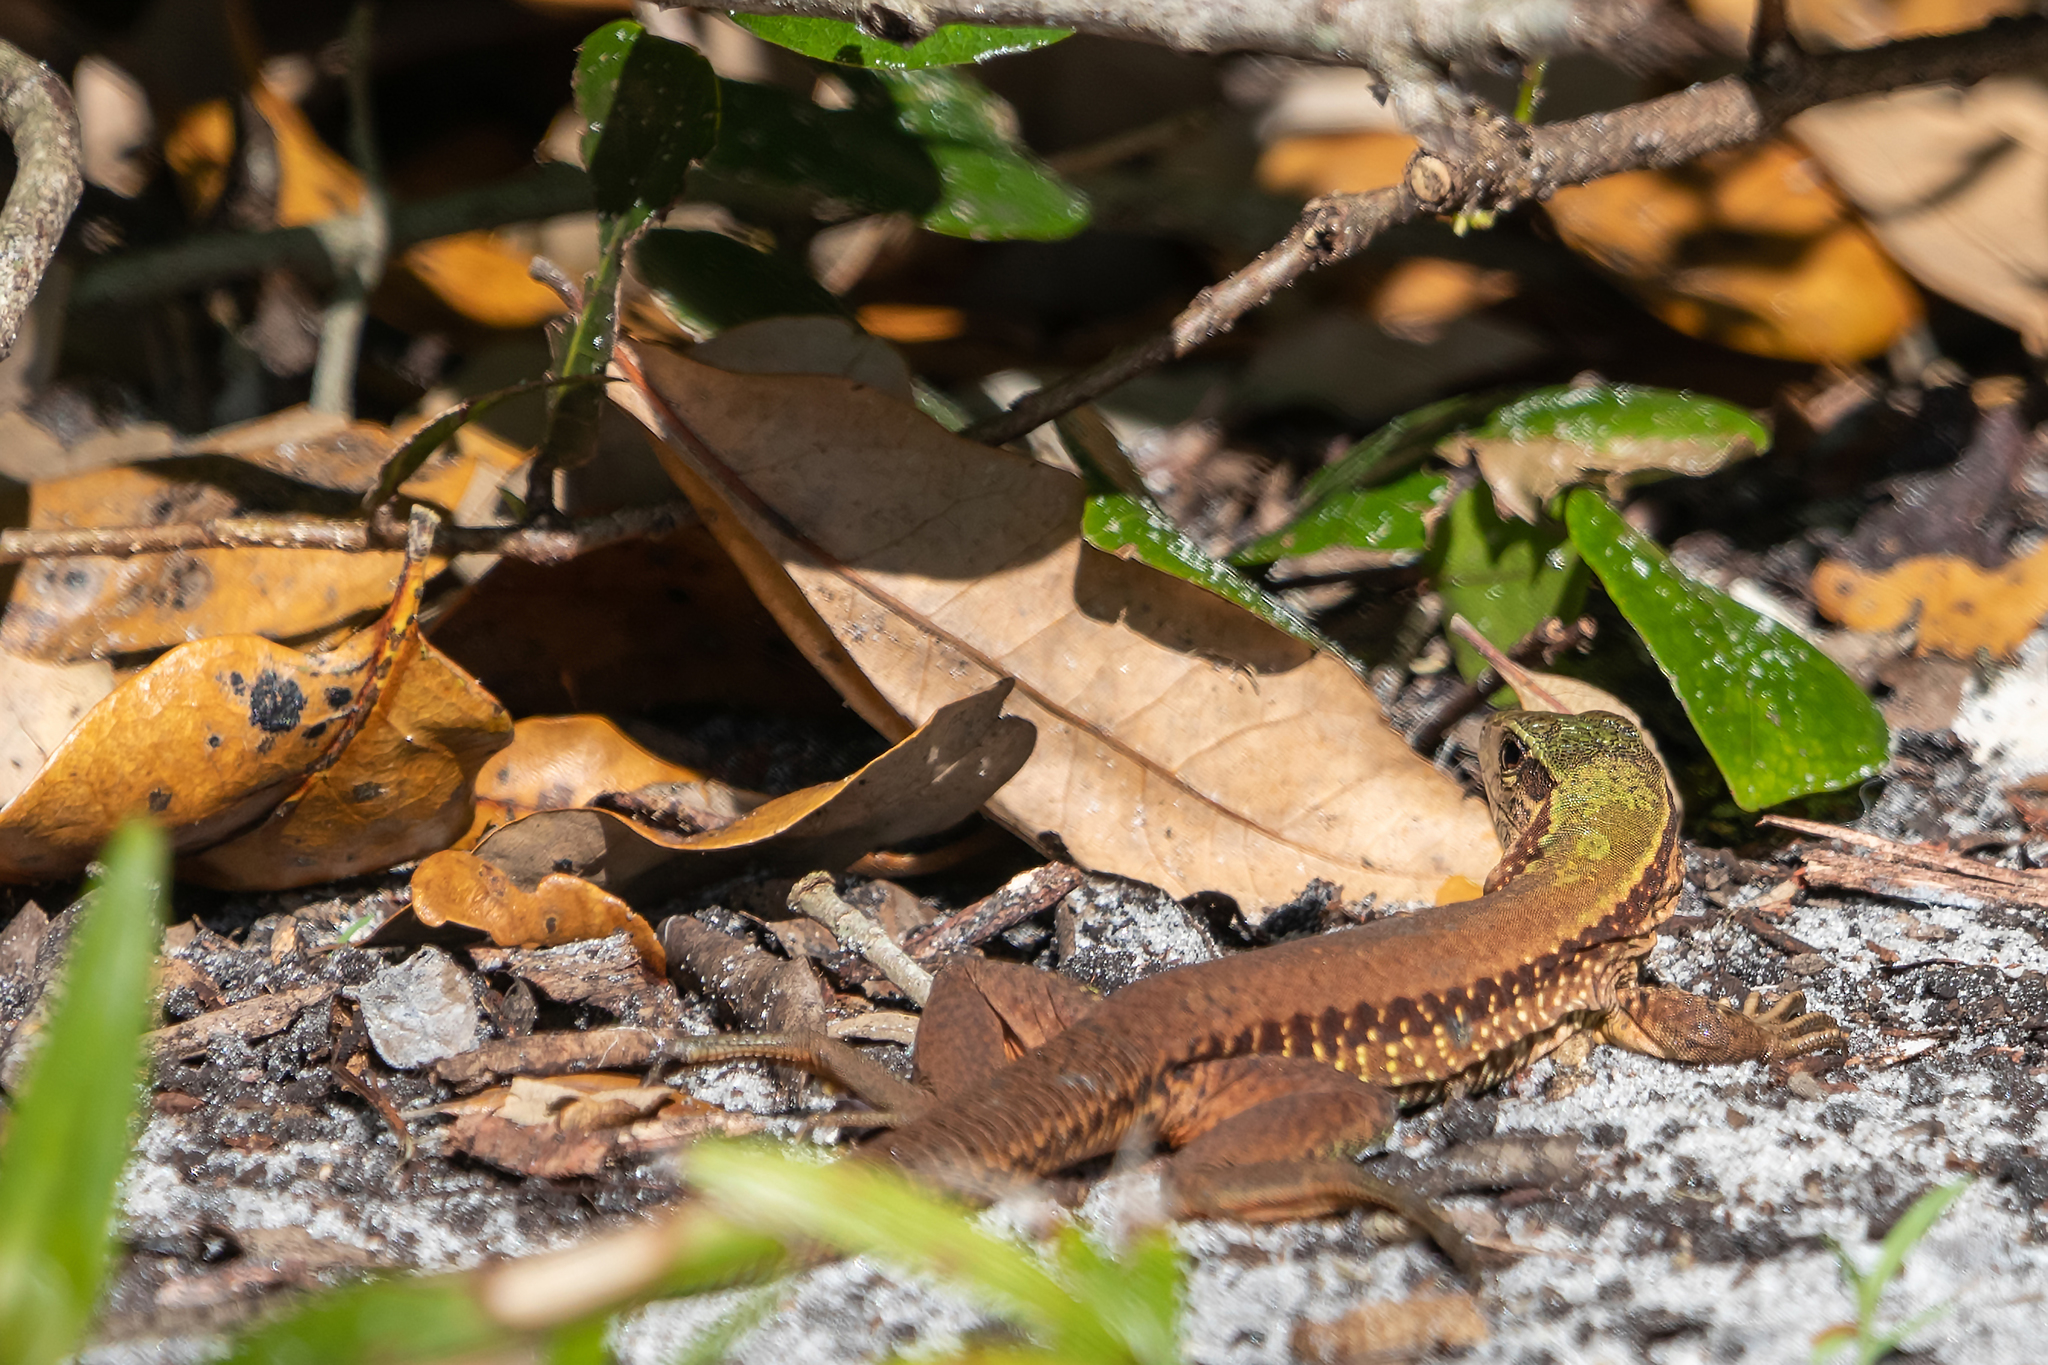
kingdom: Animalia
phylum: Chordata
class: Squamata
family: Teiidae
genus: Ameiva
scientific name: Ameiva ameiva
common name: Giant ameiva
